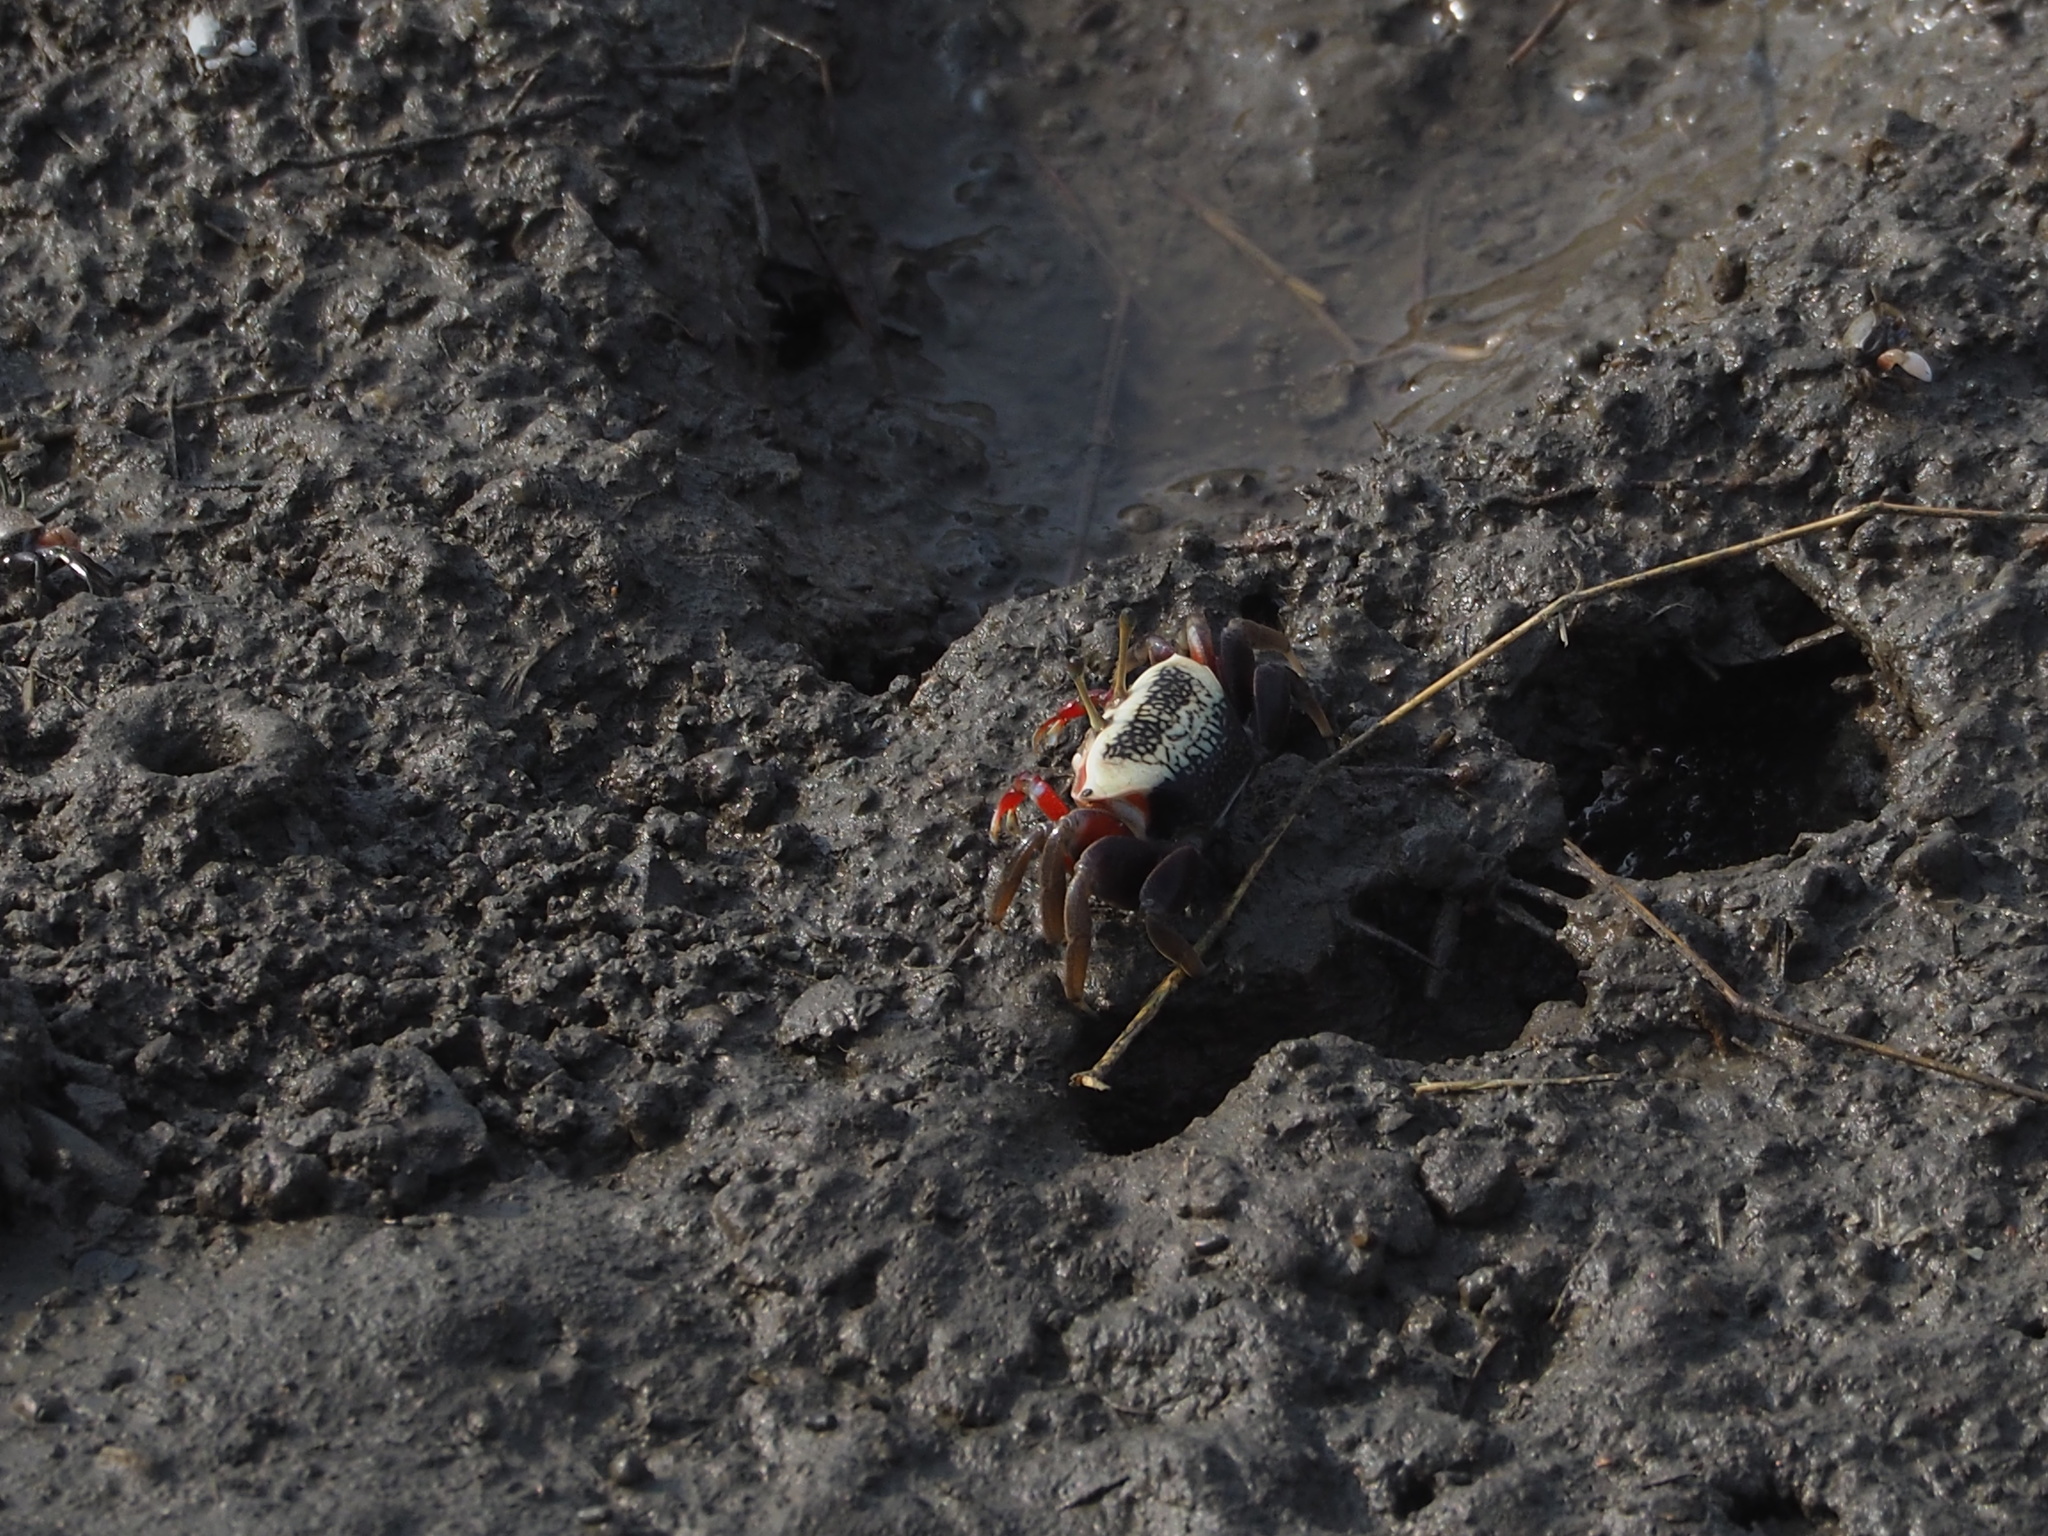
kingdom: Animalia
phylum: Arthropoda
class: Malacostraca
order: Decapoda
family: Ocypodidae
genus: Tubuca
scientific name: Tubuca arcuata
